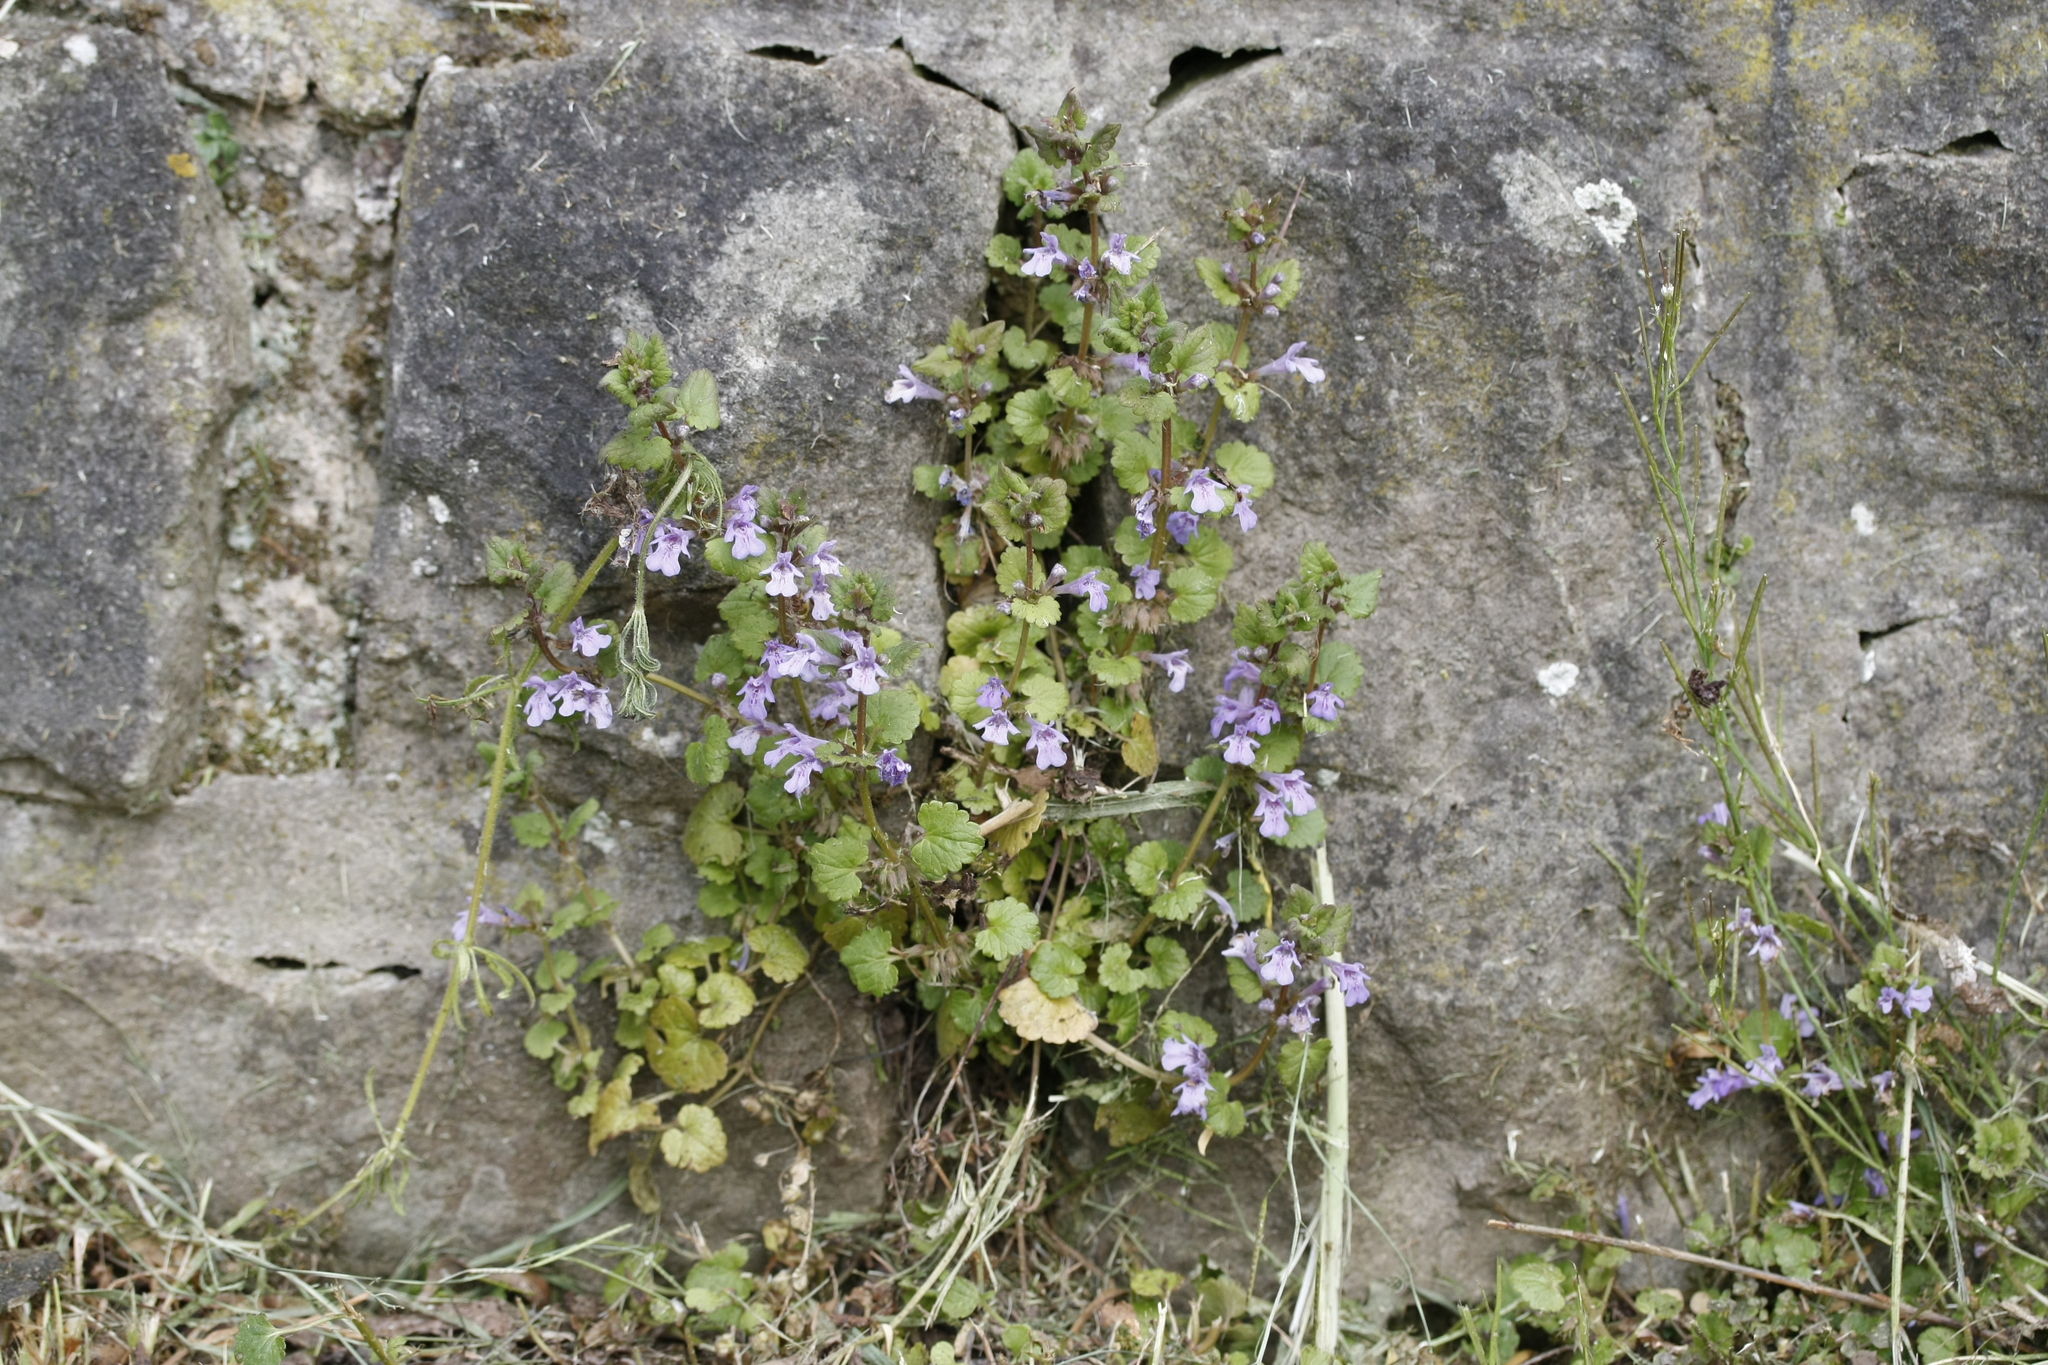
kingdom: Plantae
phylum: Tracheophyta
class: Magnoliopsida
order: Lamiales
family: Lamiaceae
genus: Glechoma
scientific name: Glechoma hederacea
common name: Ground ivy
